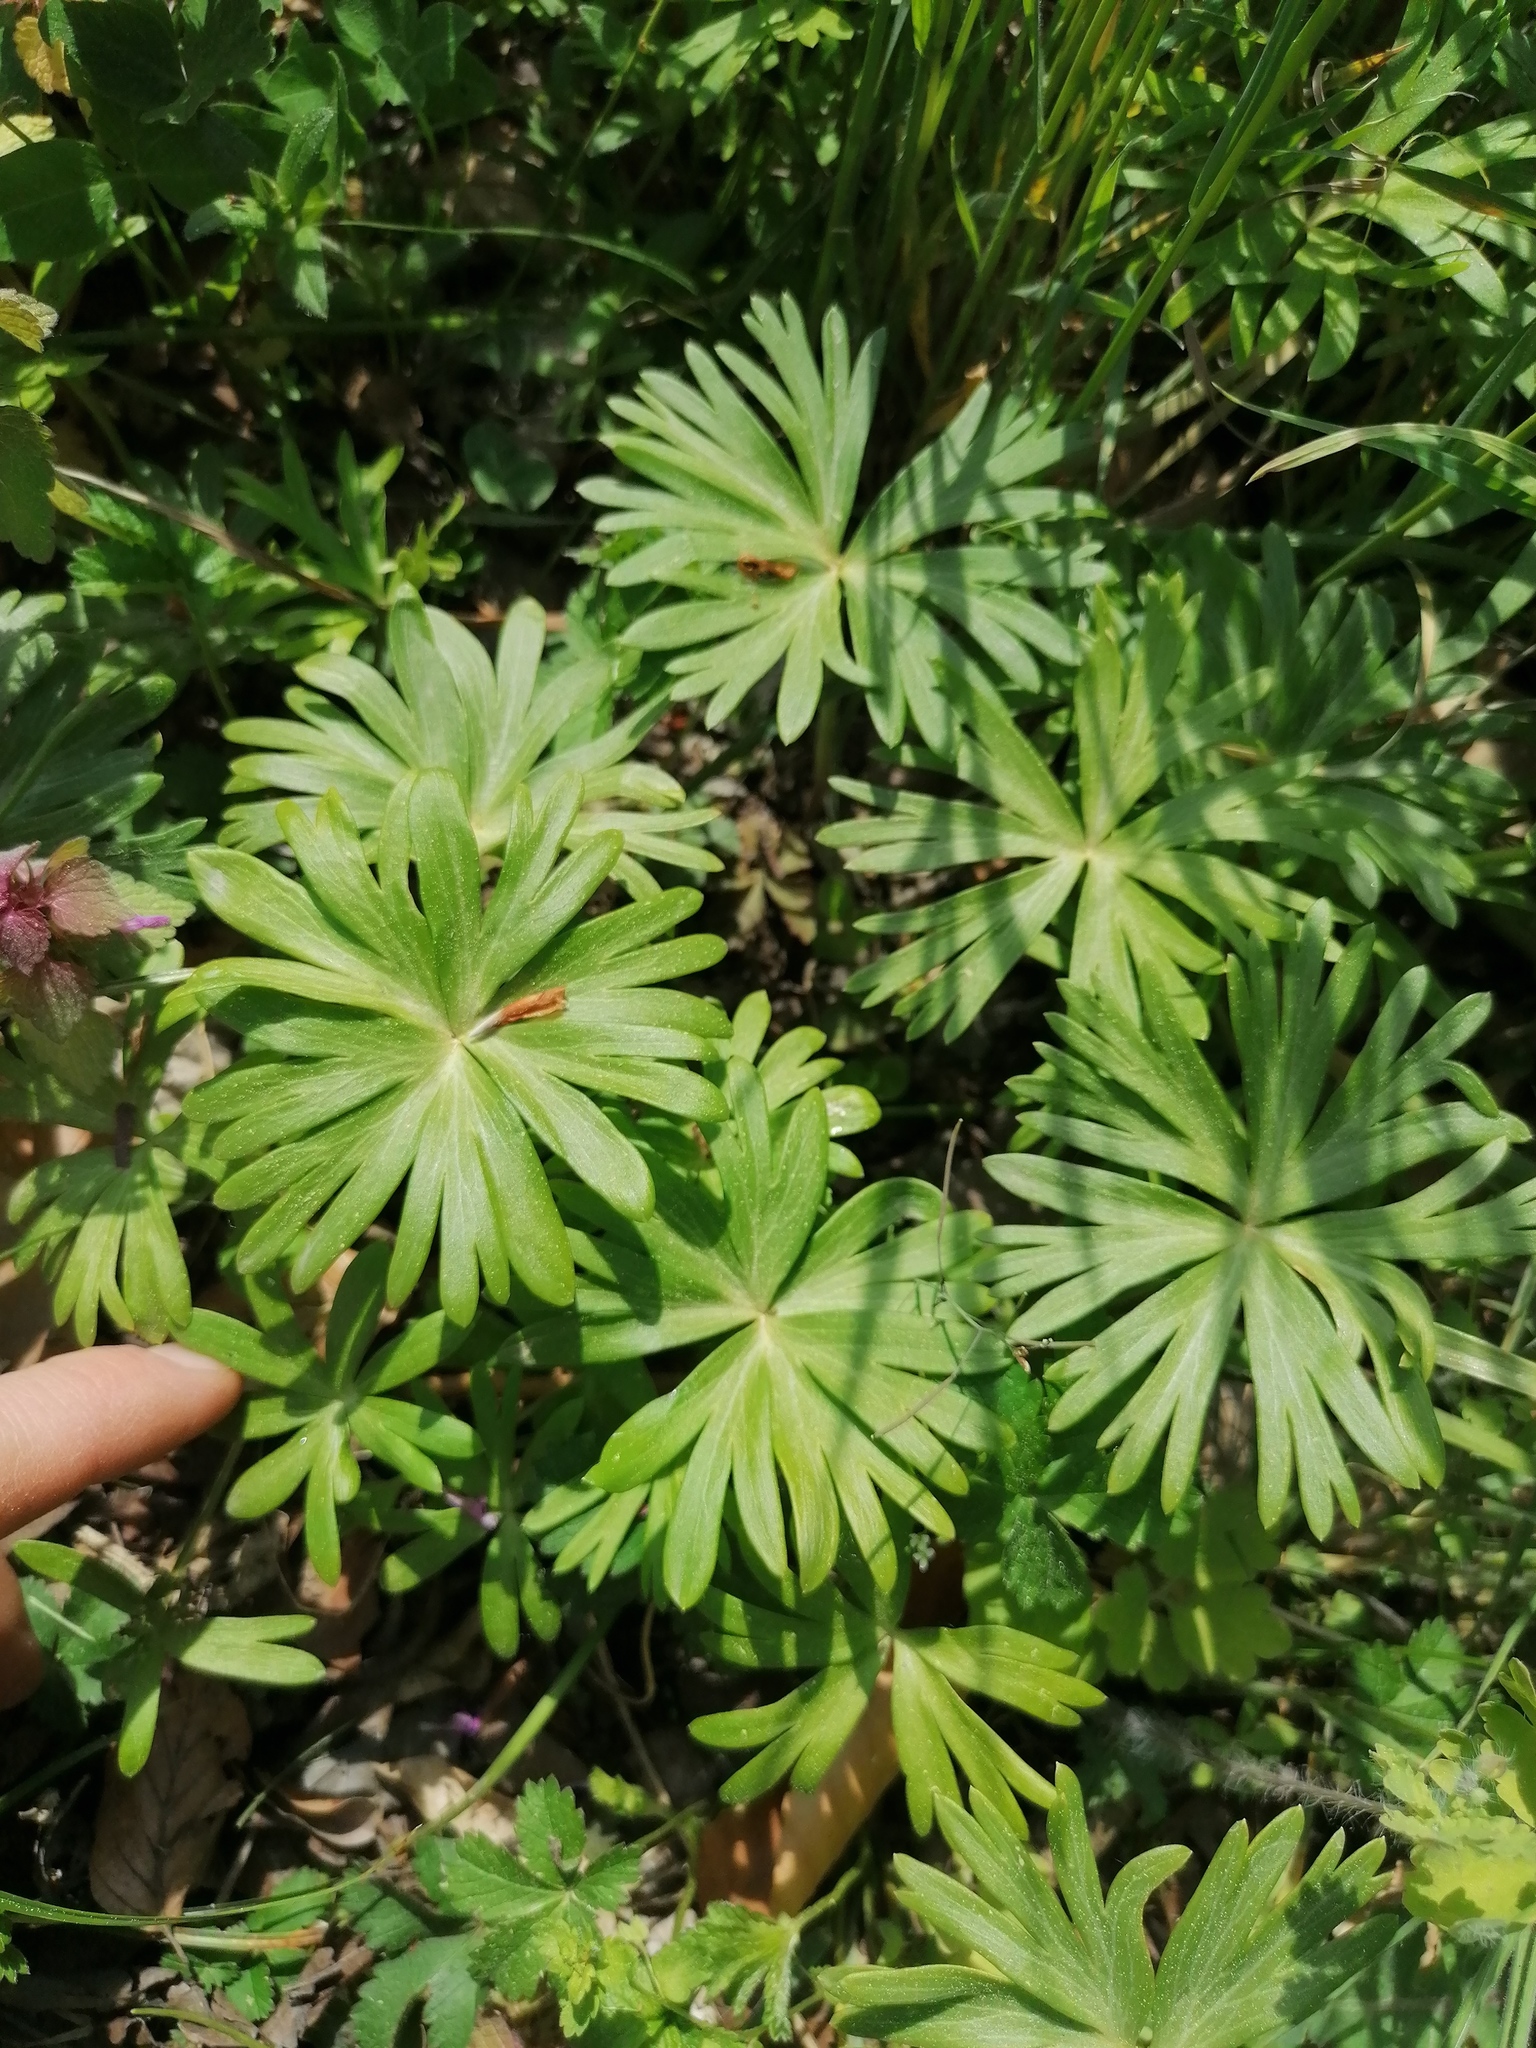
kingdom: Plantae
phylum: Tracheophyta
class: Magnoliopsida
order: Ranunculales
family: Ranunculaceae
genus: Eranthis
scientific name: Eranthis hyemalis
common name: Winter aconite
